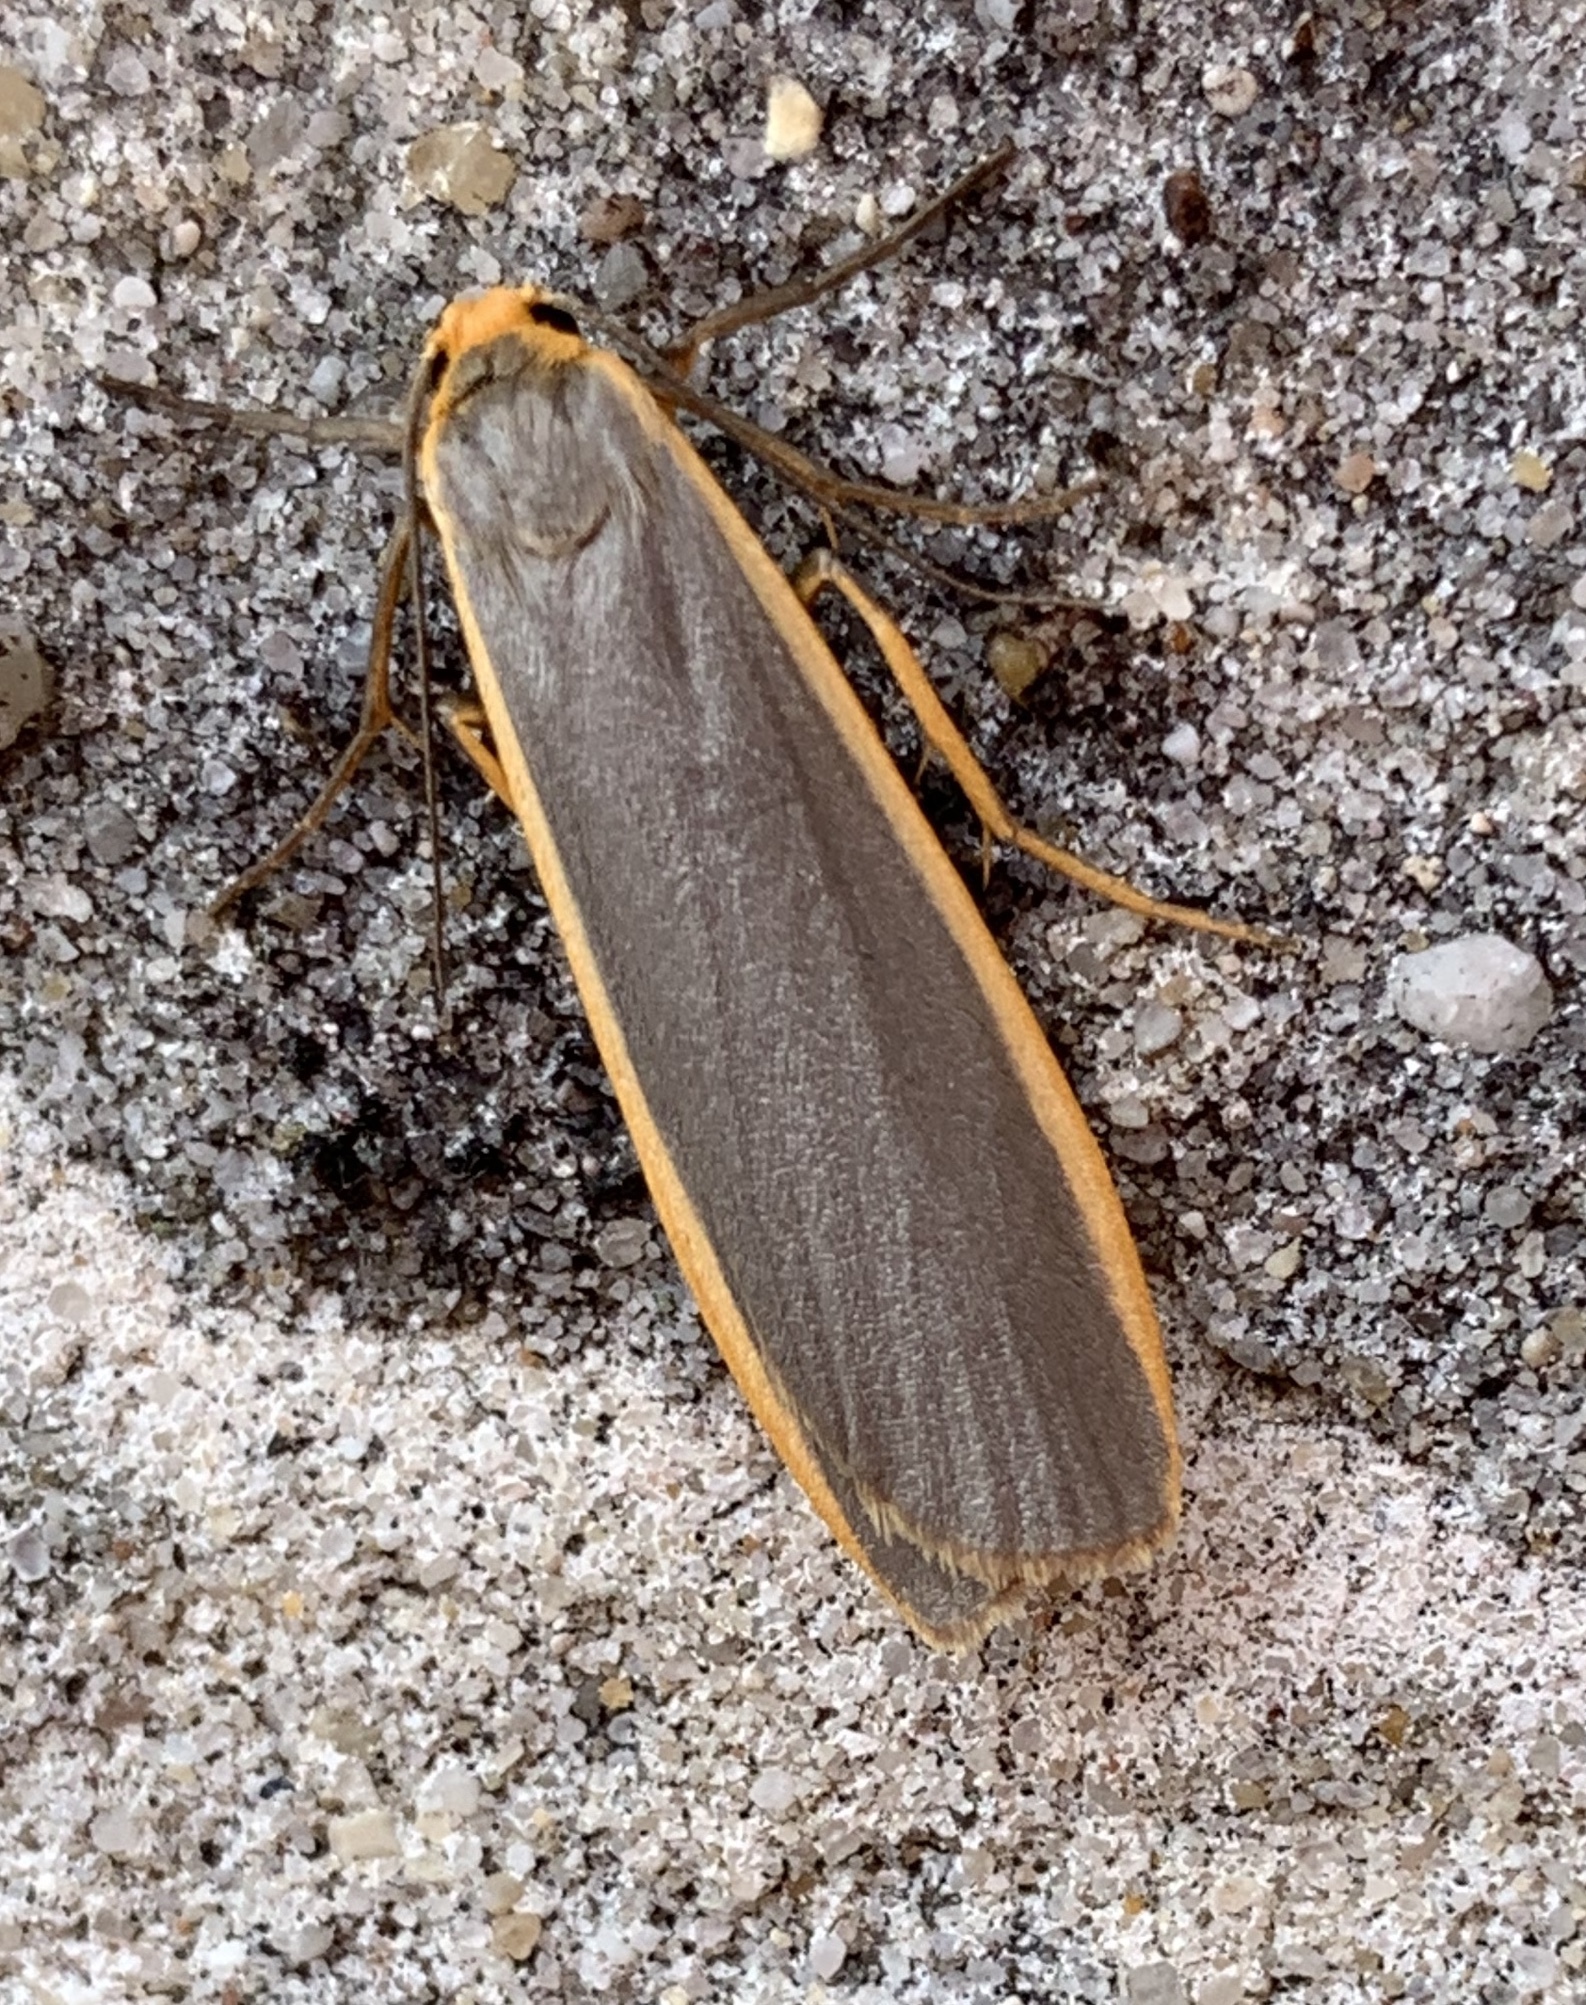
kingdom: Animalia
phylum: Arthropoda
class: Insecta
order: Lepidoptera
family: Erebidae
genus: Nyea
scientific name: Nyea lurideola
